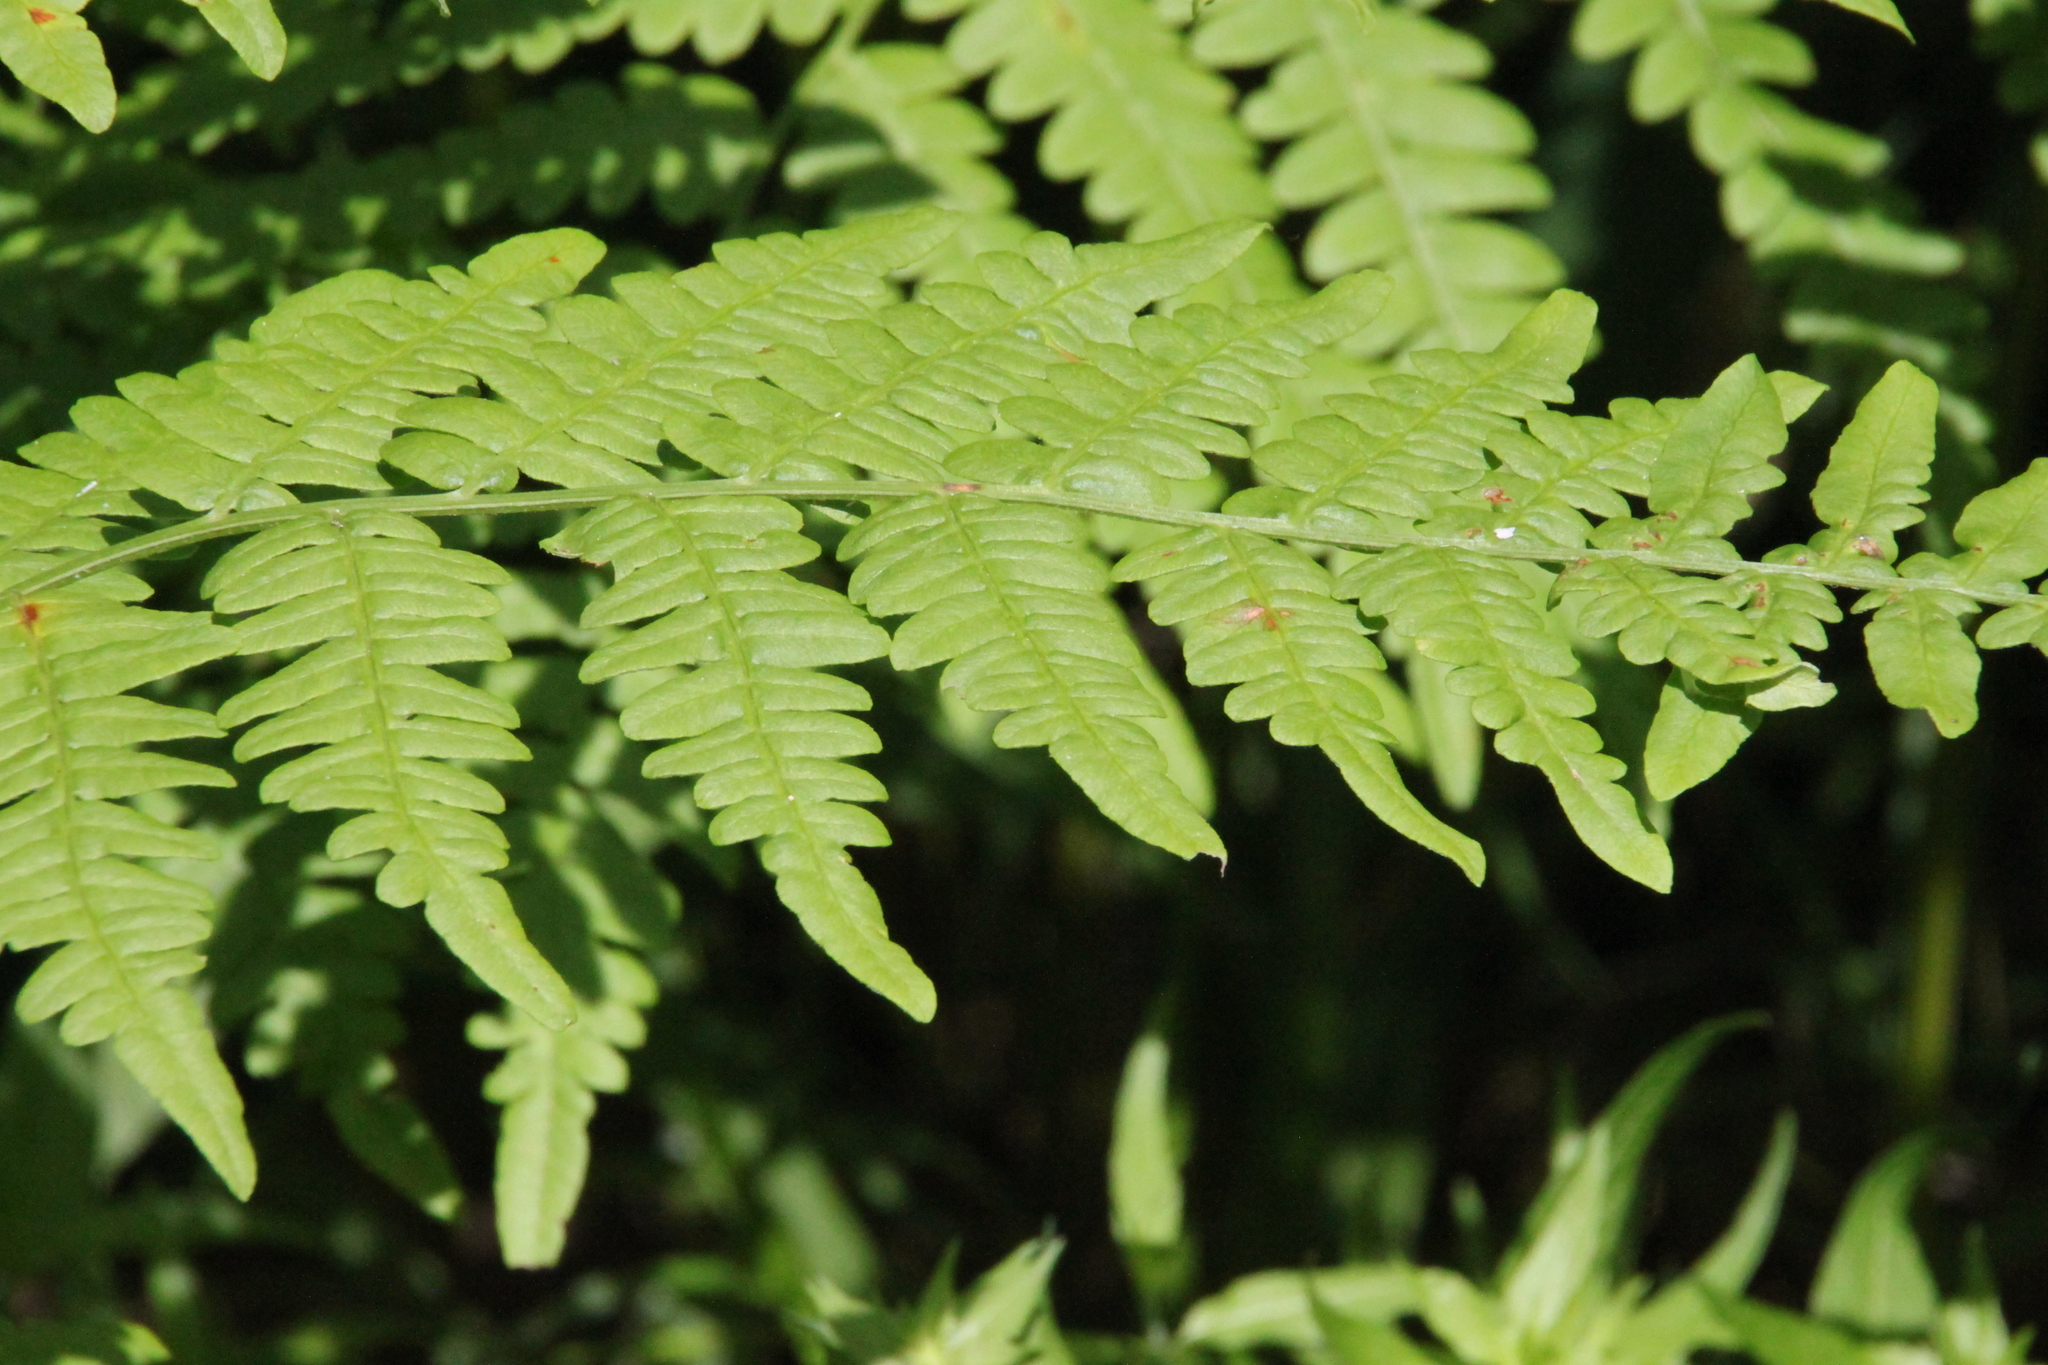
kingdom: Plantae
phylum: Tracheophyta
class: Polypodiopsida
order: Polypodiales
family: Dennstaedtiaceae
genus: Pteridium
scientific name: Pteridium aquilinum
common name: Bracken
